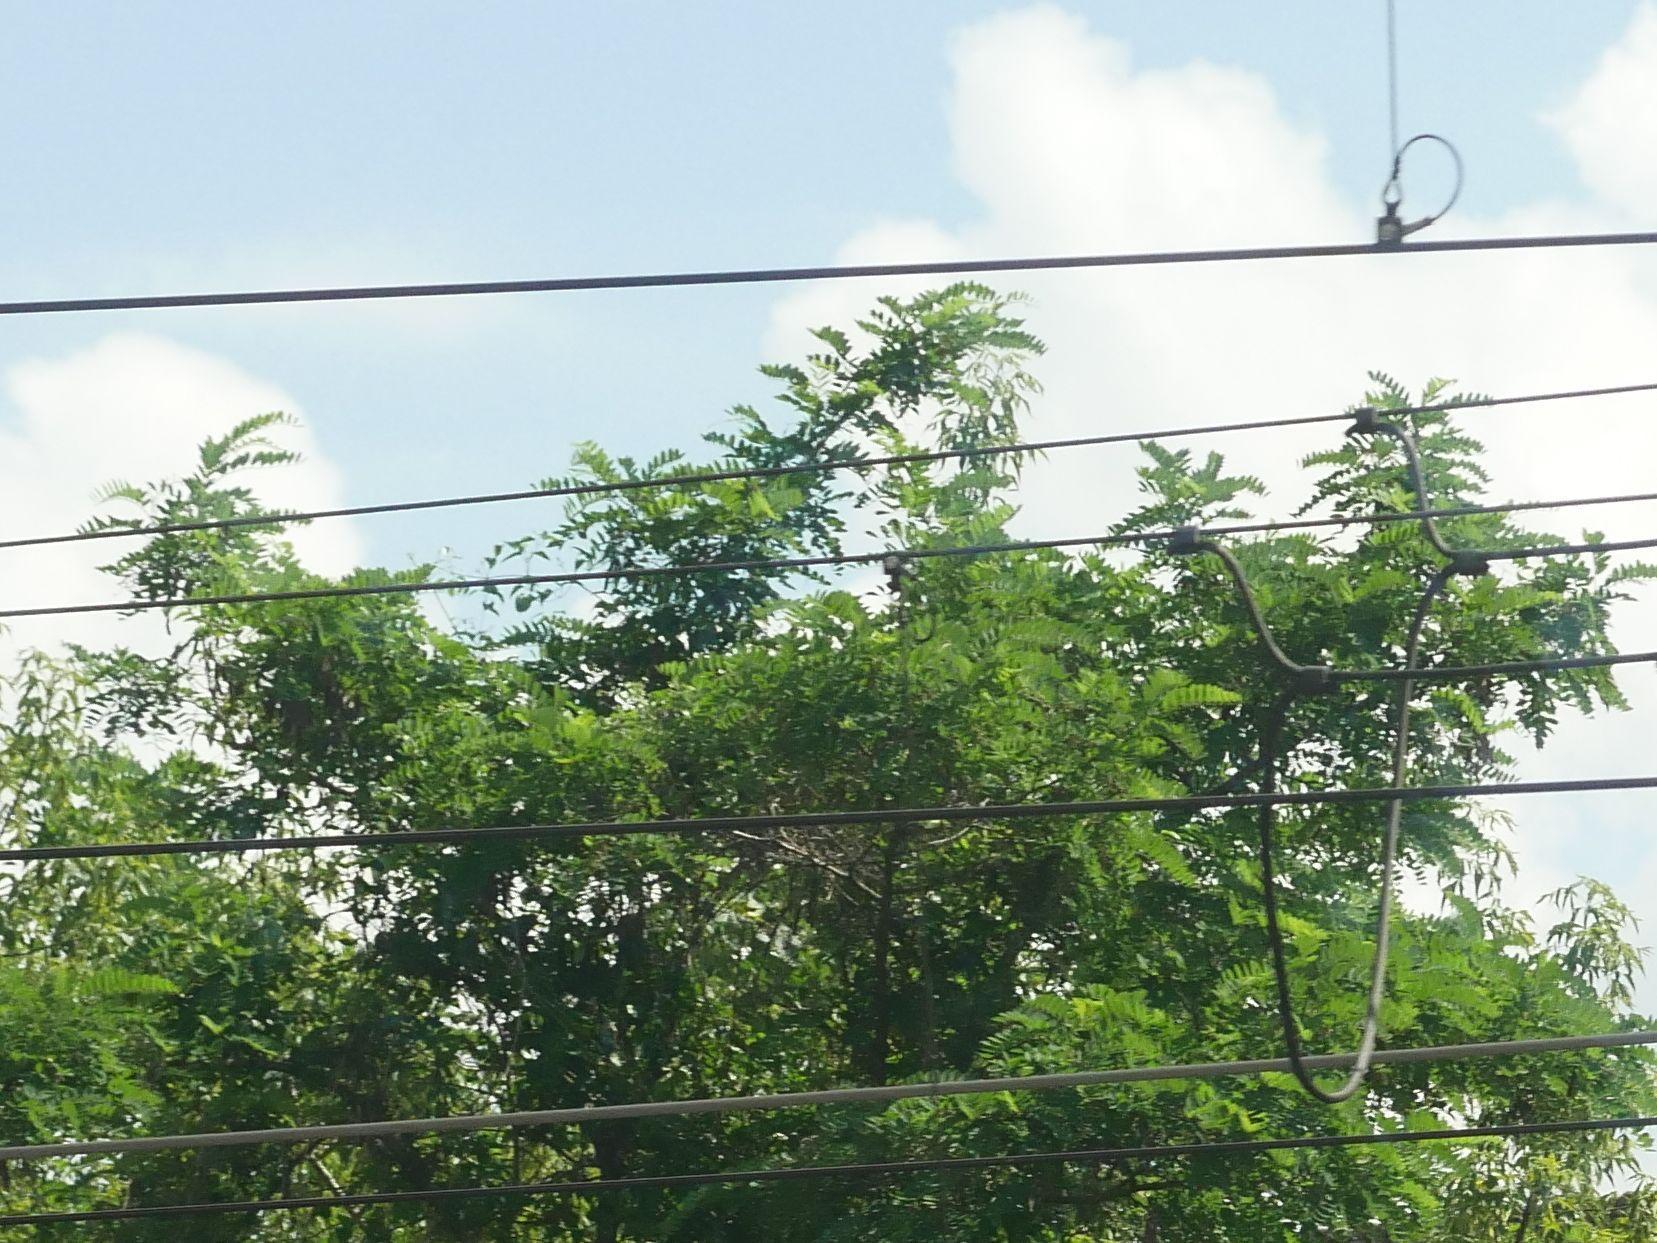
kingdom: Plantae
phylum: Tracheophyta
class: Magnoliopsida
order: Fabales
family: Fabaceae
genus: Robinia
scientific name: Robinia pseudoacacia
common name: Black locust
